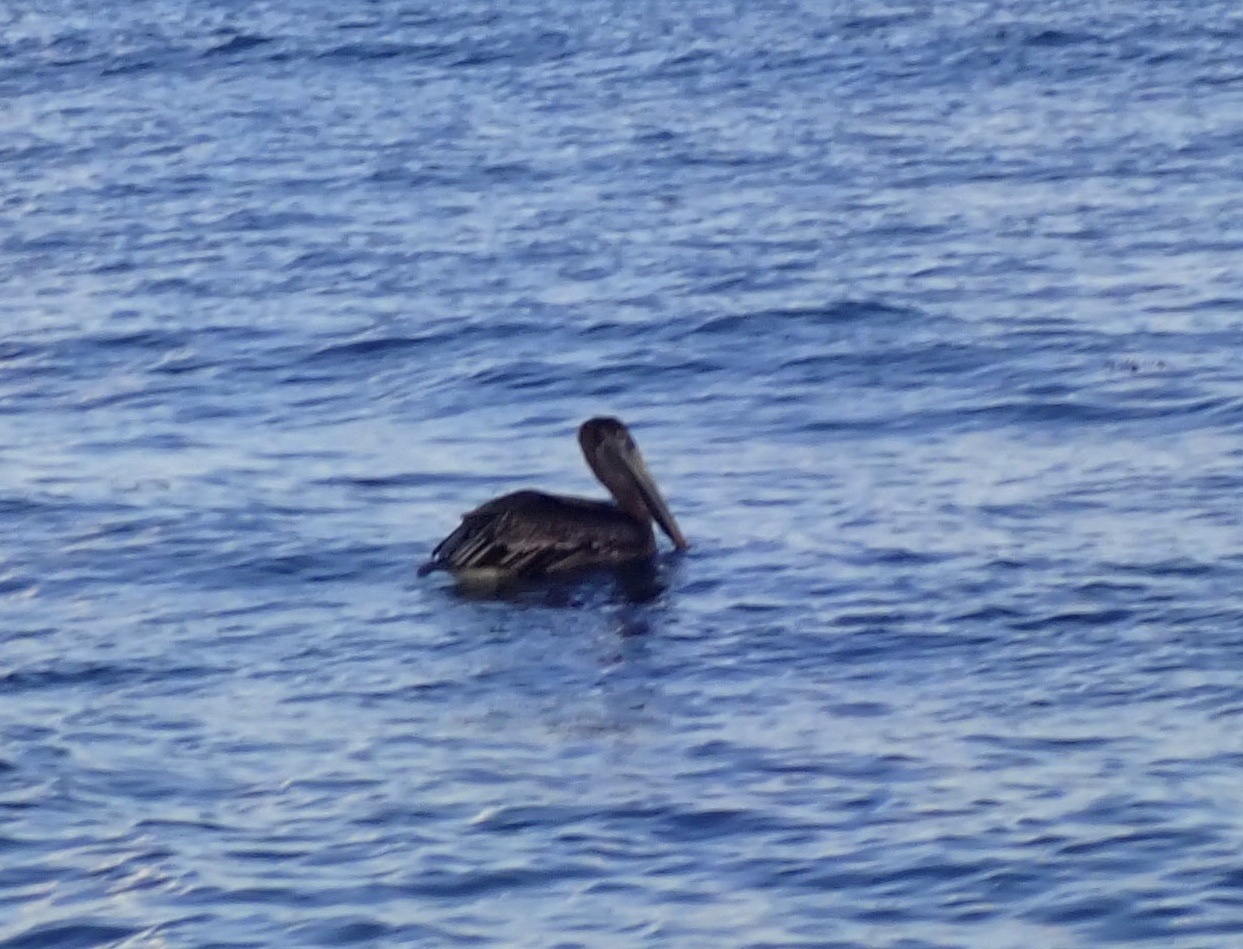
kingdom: Animalia
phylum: Chordata
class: Aves
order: Pelecaniformes
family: Pelecanidae
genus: Pelecanus
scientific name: Pelecanus occidentalis
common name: Brown pelican
